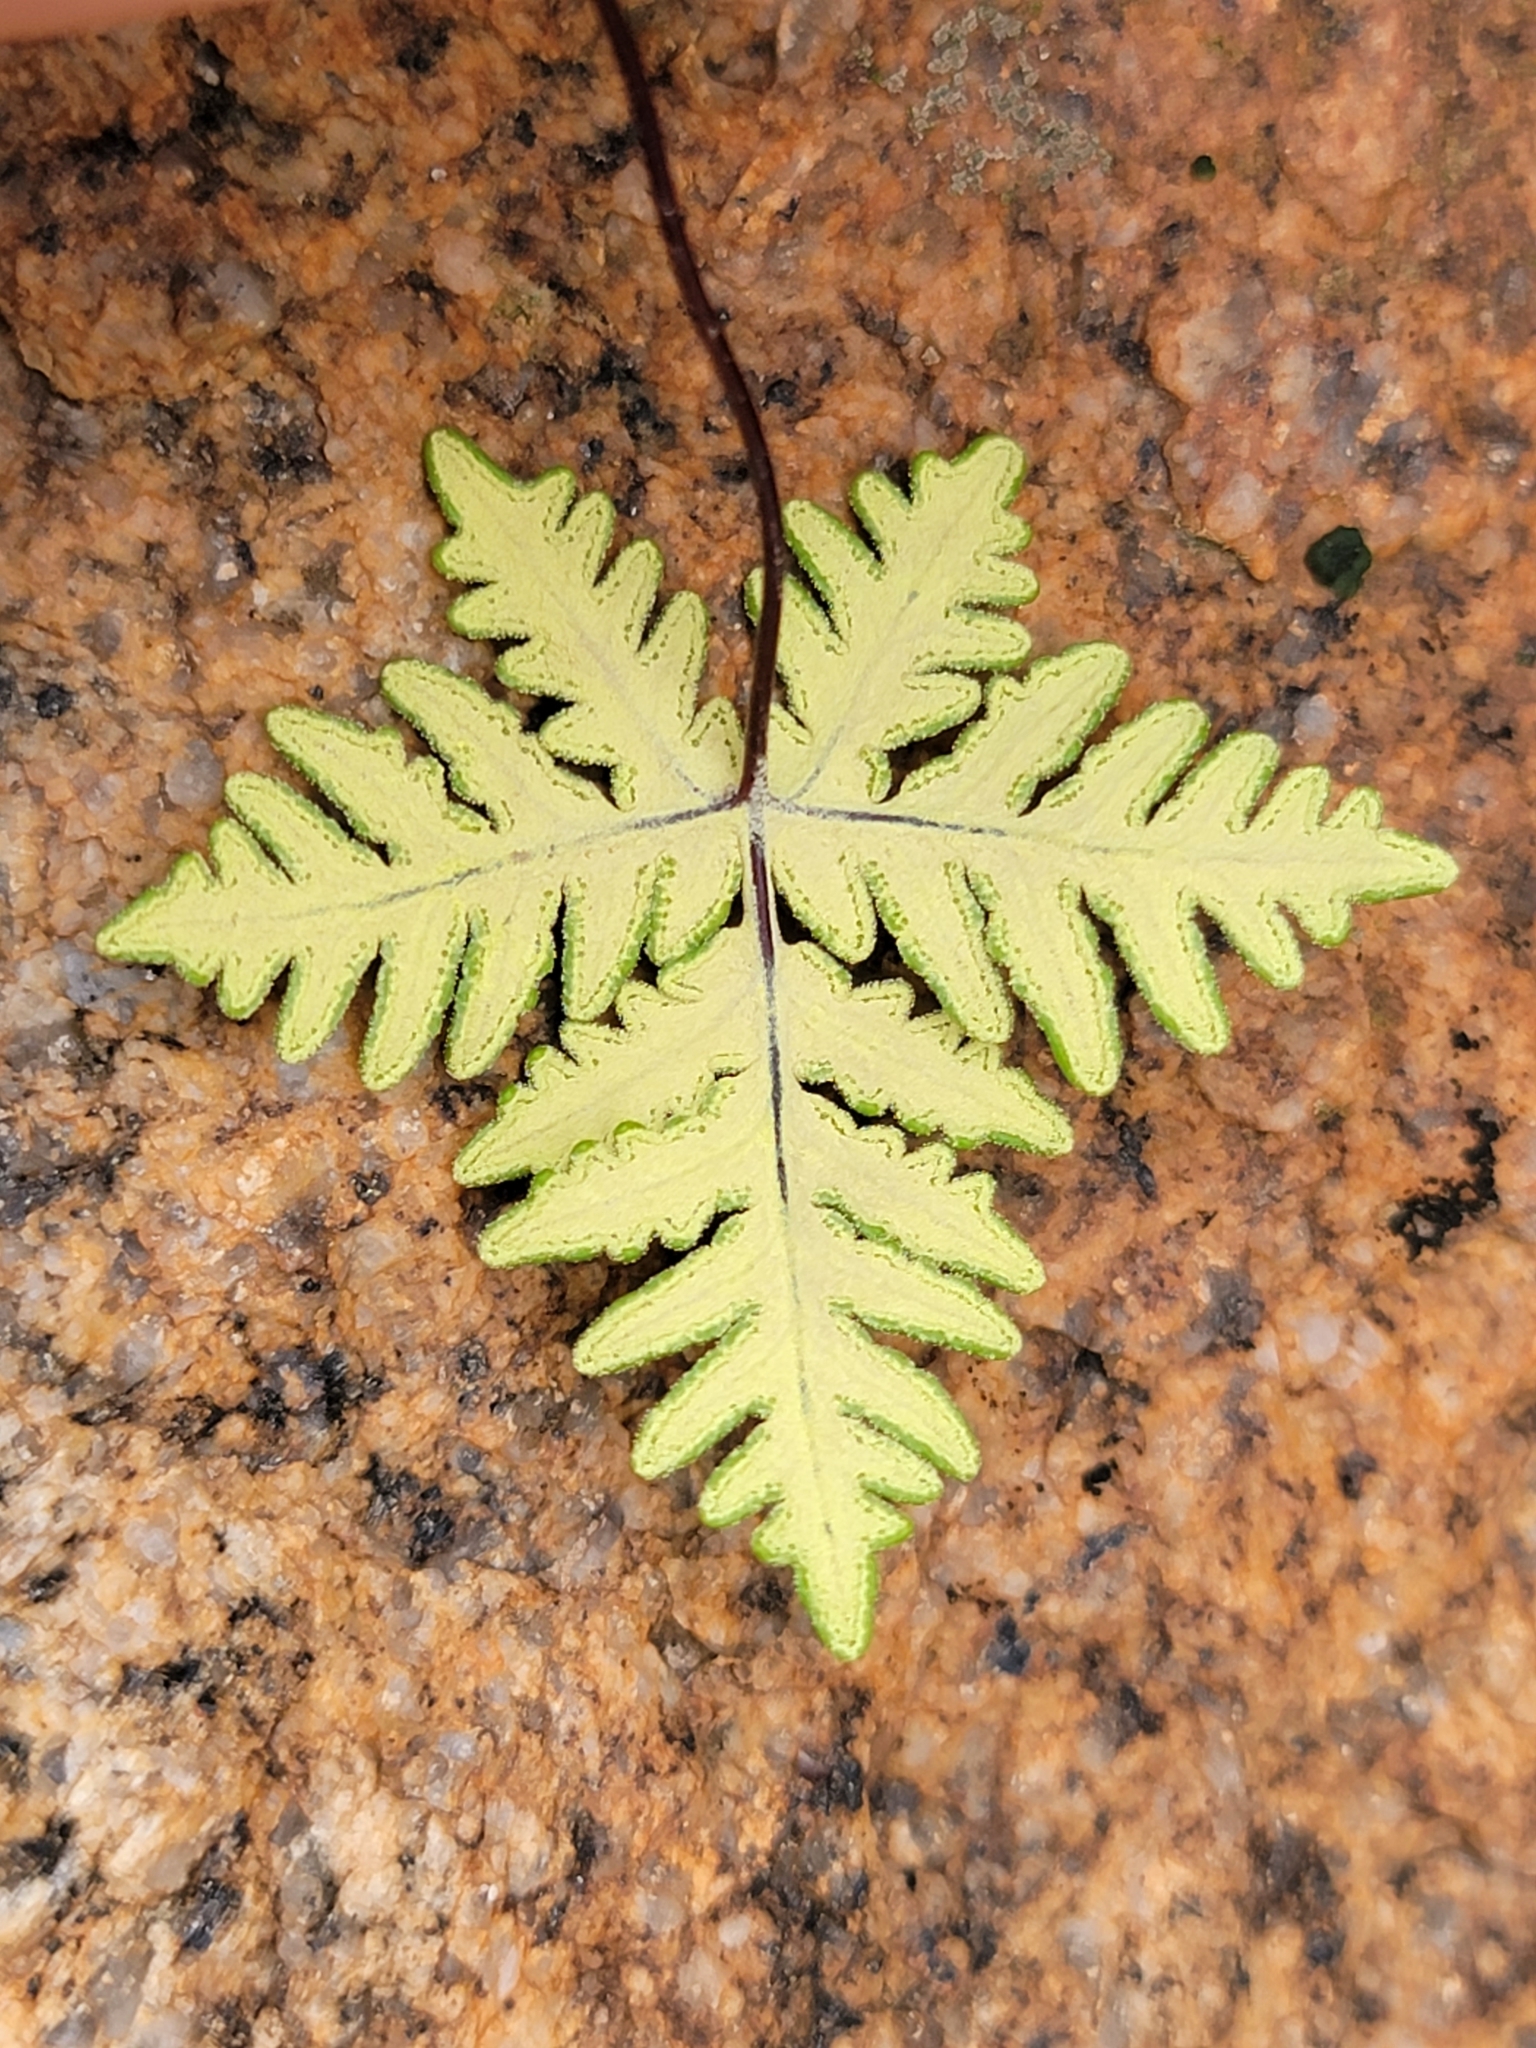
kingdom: Plantae
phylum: Tracheophyta
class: Polypodiopsida
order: Polypodiales
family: Pteridaceae
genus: Notholaena
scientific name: Notholaena standleyi
